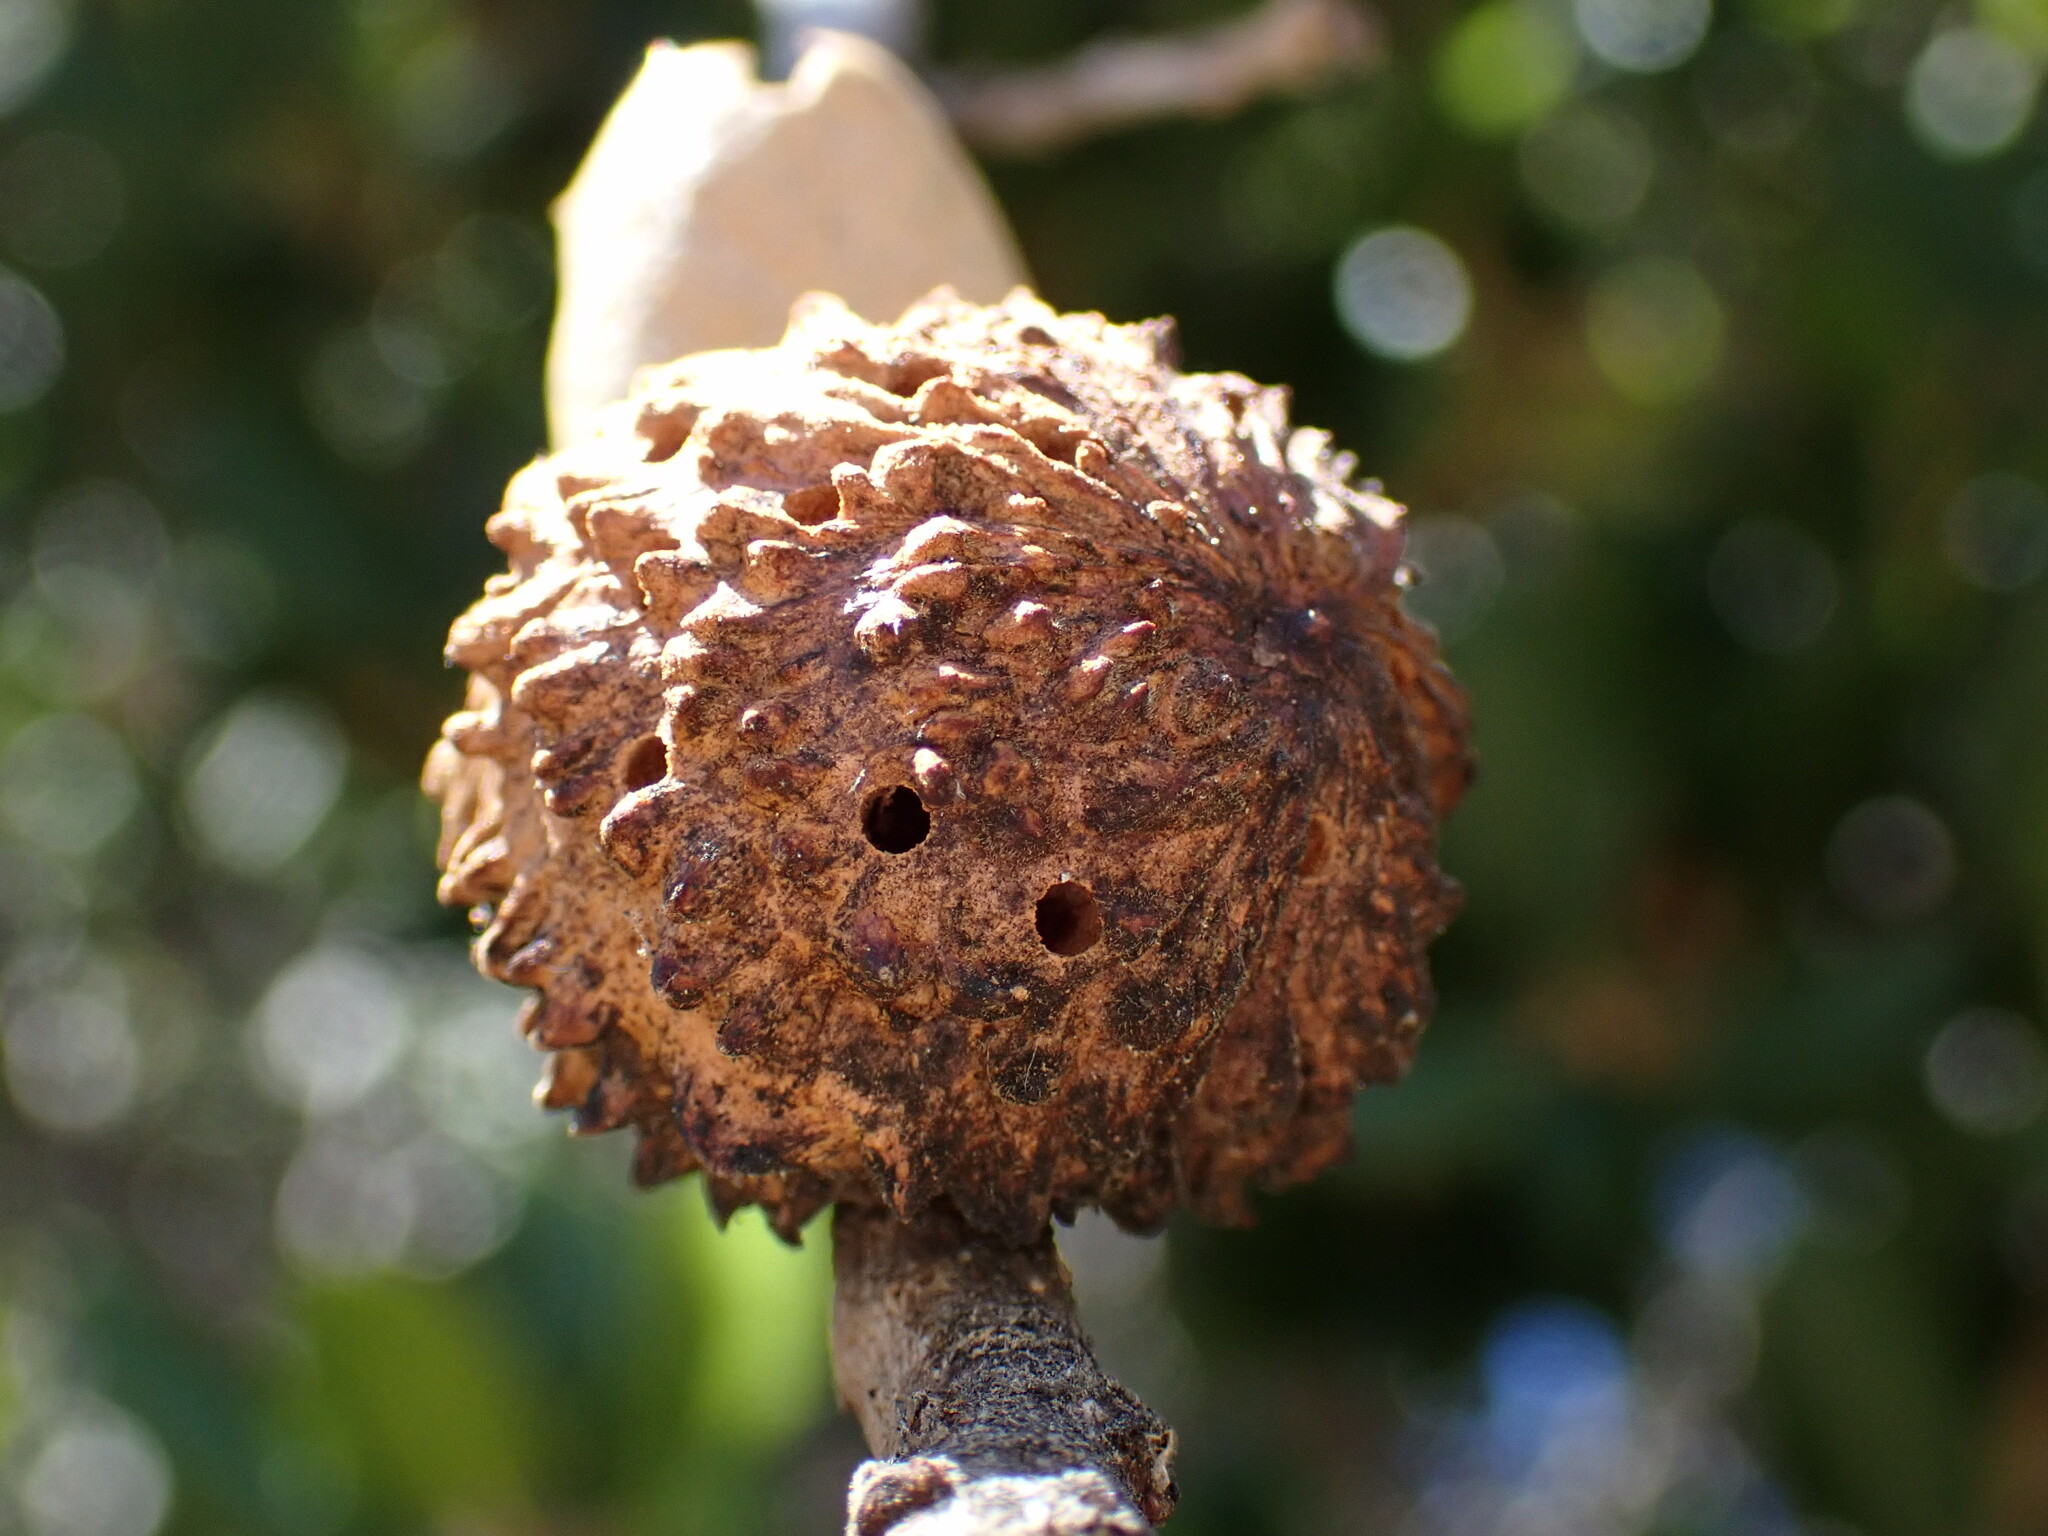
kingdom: Animalia
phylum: Arthropoda
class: Insecta
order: Hymenoptera
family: Cynipidae
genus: Amphibolips
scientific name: Amphibolips quercuspomiformis
